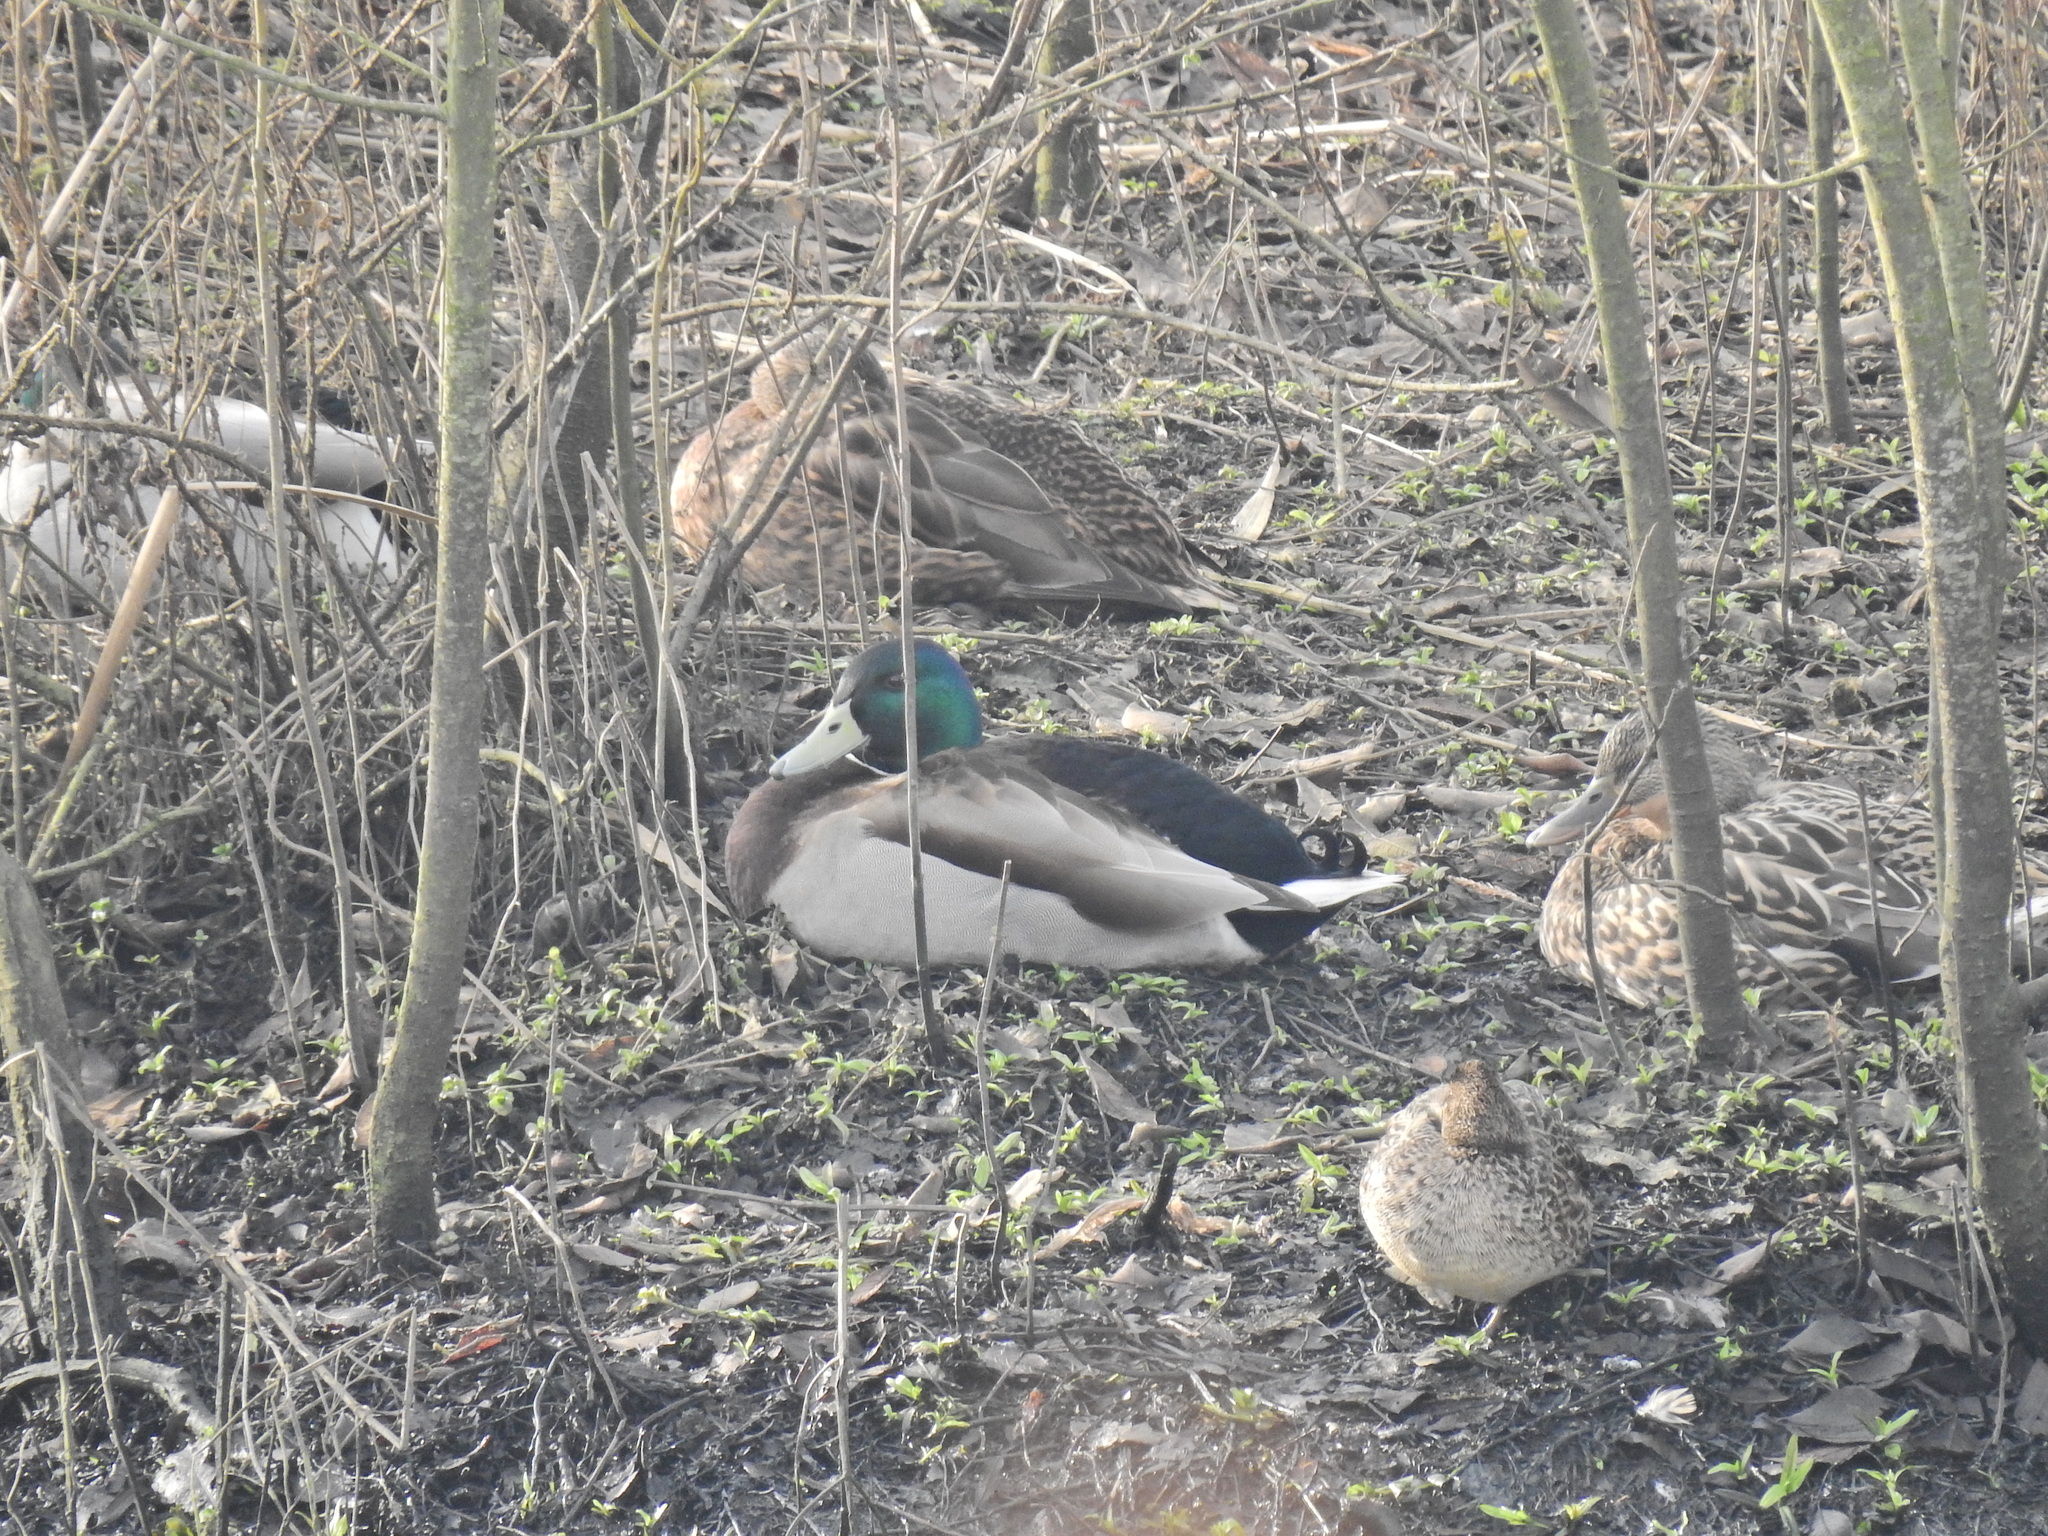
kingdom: Animalia
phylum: Chordata
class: Aves
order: Anseriformes
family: Anatidae
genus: Anas
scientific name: Anas platyrhynchos
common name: Mallard
